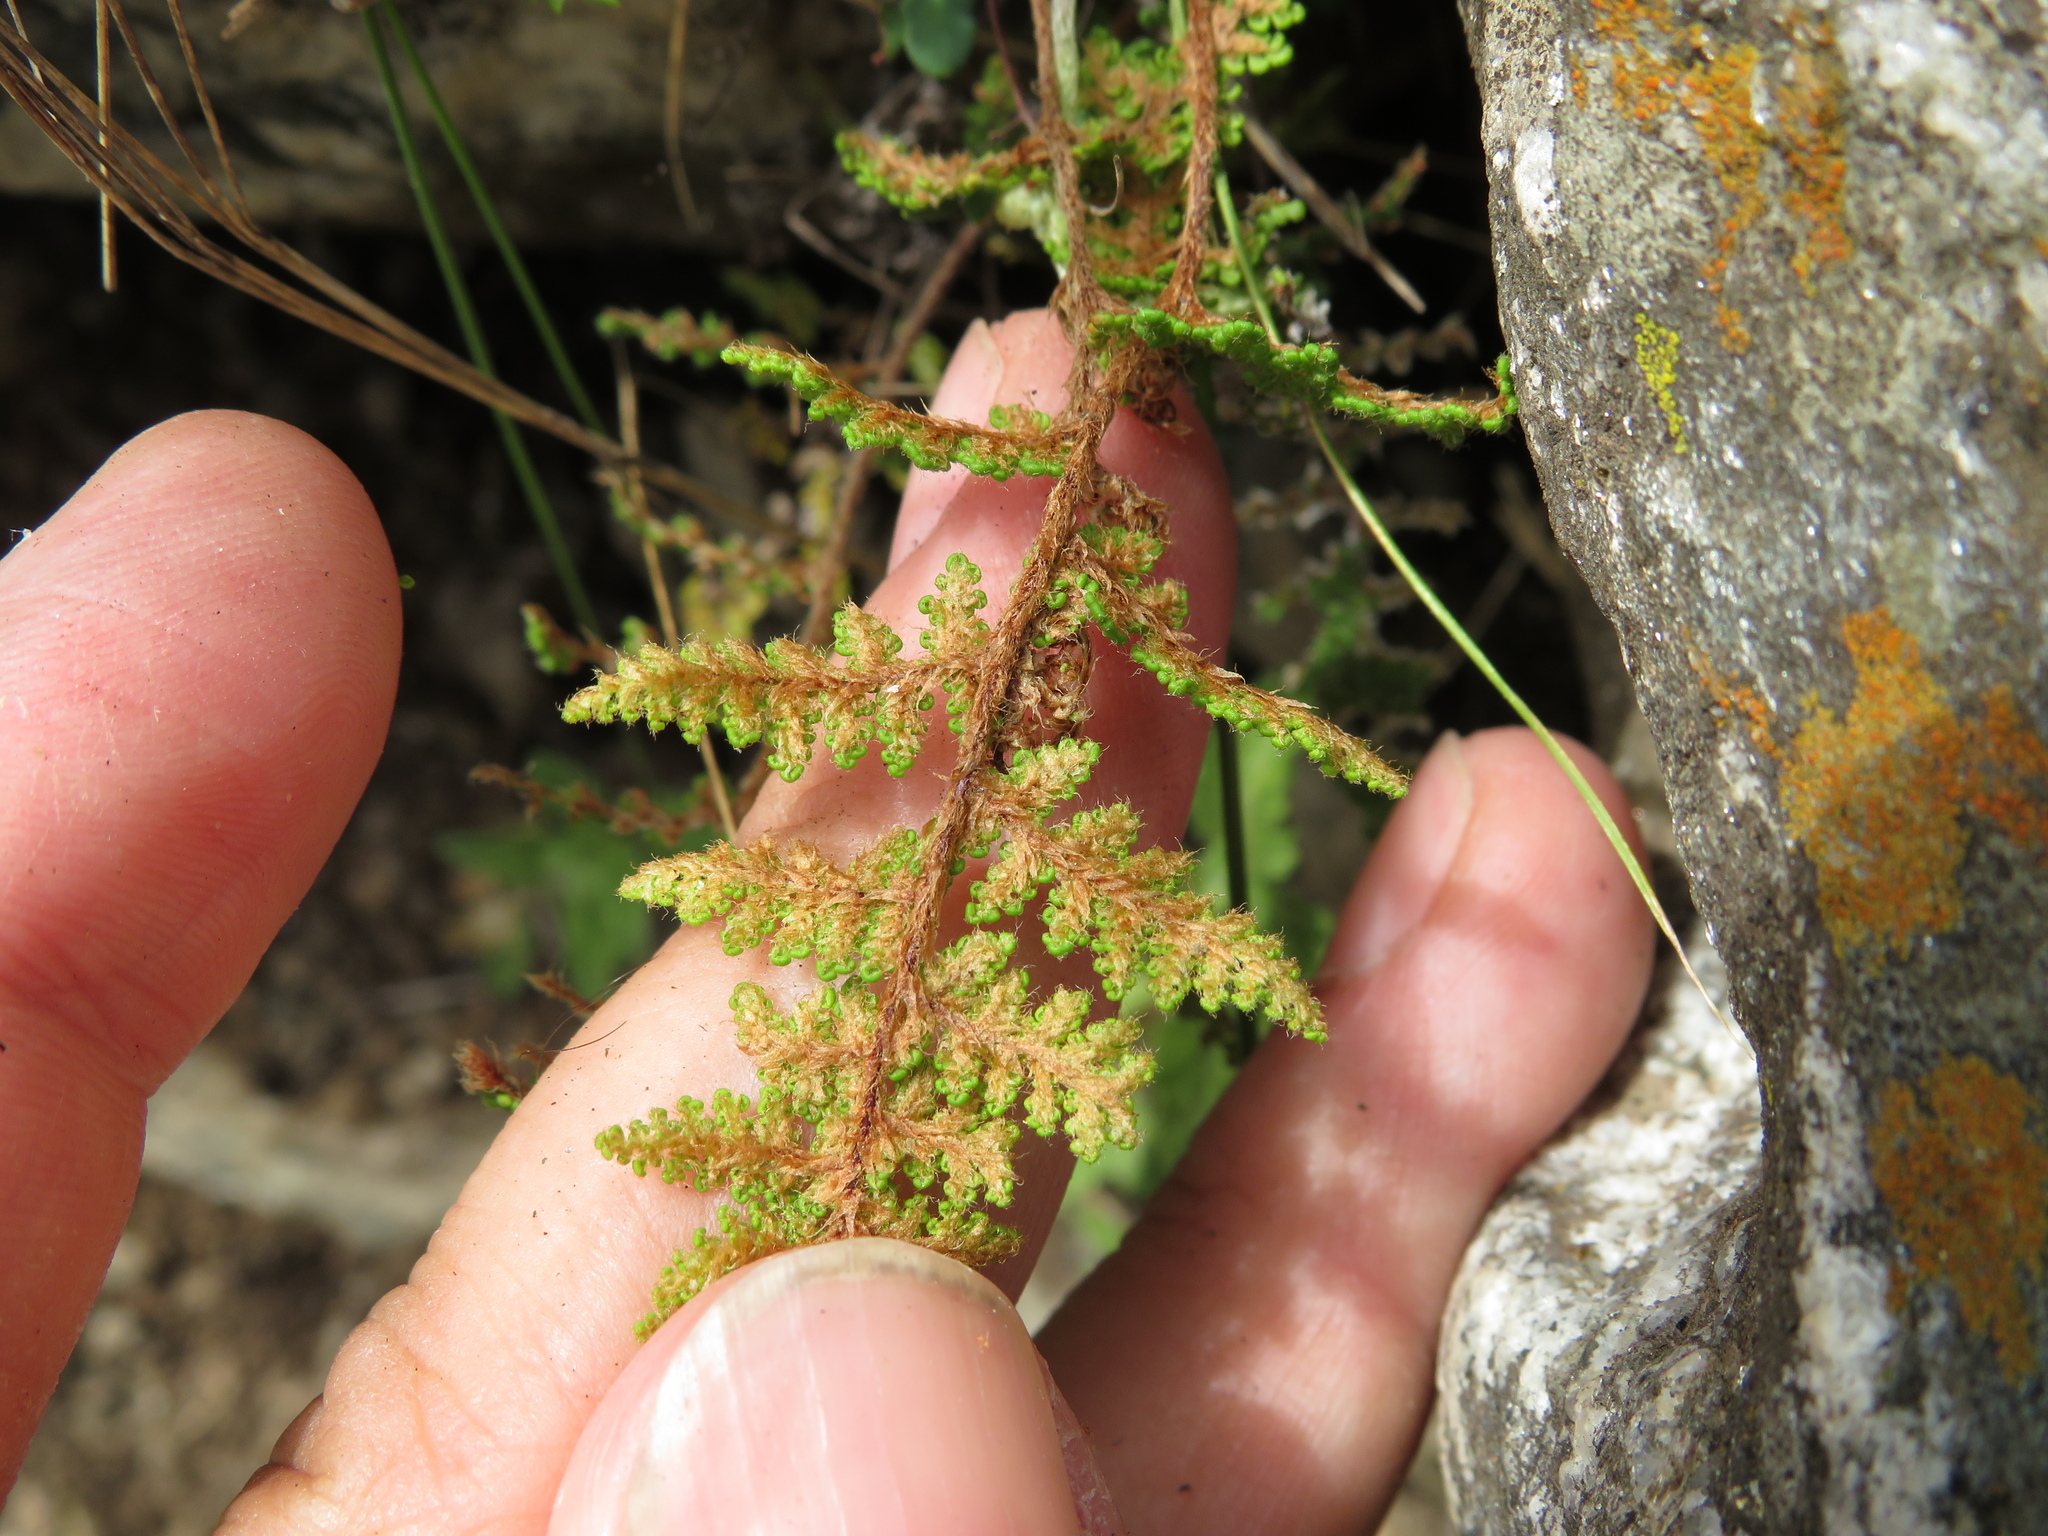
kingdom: Plantae
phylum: Tracheophyta
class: Polypodiopsida
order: Polypodiales
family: Pteridaceae
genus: Myriopteris
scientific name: Myriopteris myriophylla
